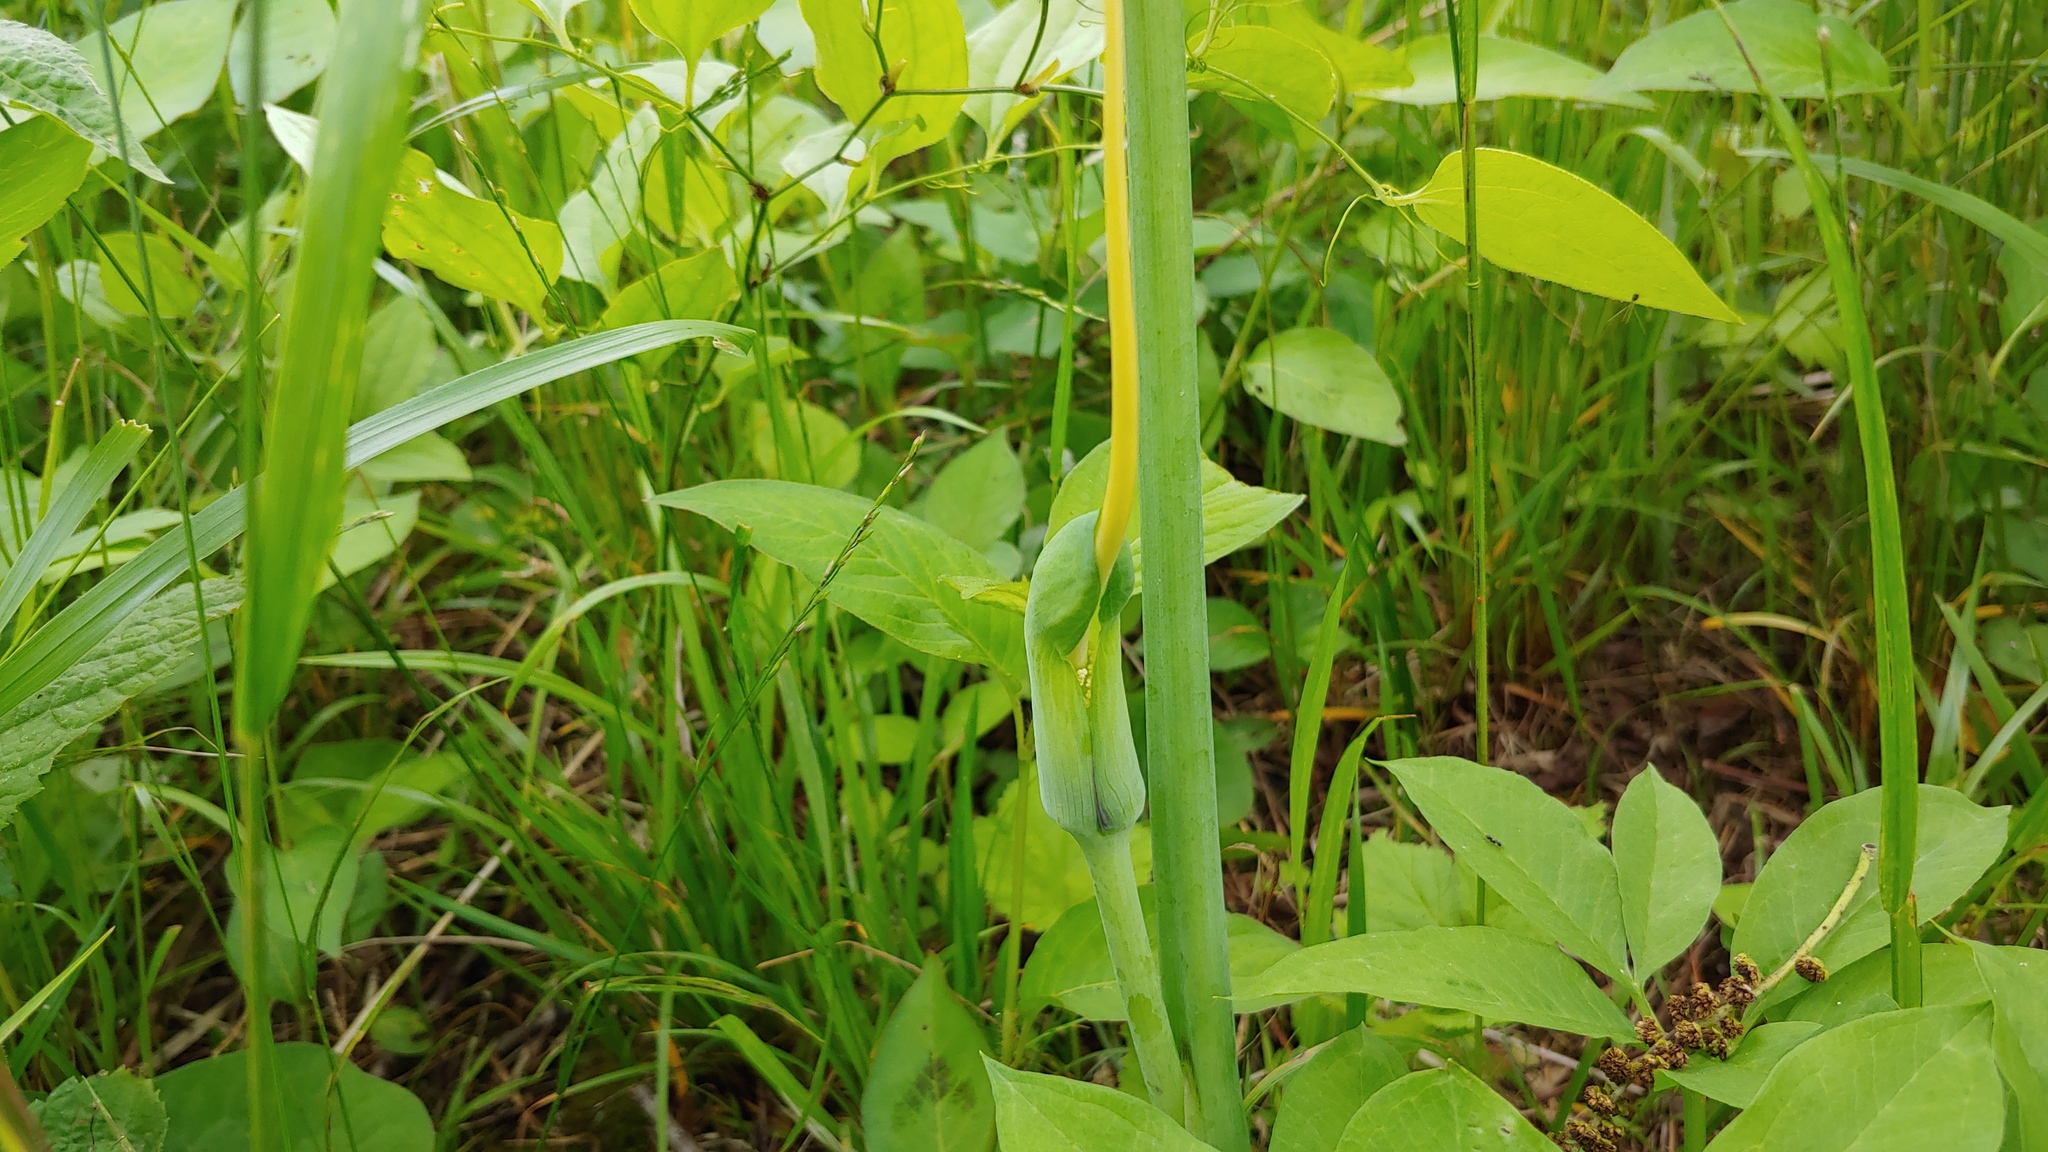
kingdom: Plantae
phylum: Tracheophyta
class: Liliopsida
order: Alismatales
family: Araceae
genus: Arisaema
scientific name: Arisaema dracontium
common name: Dragon-arum
